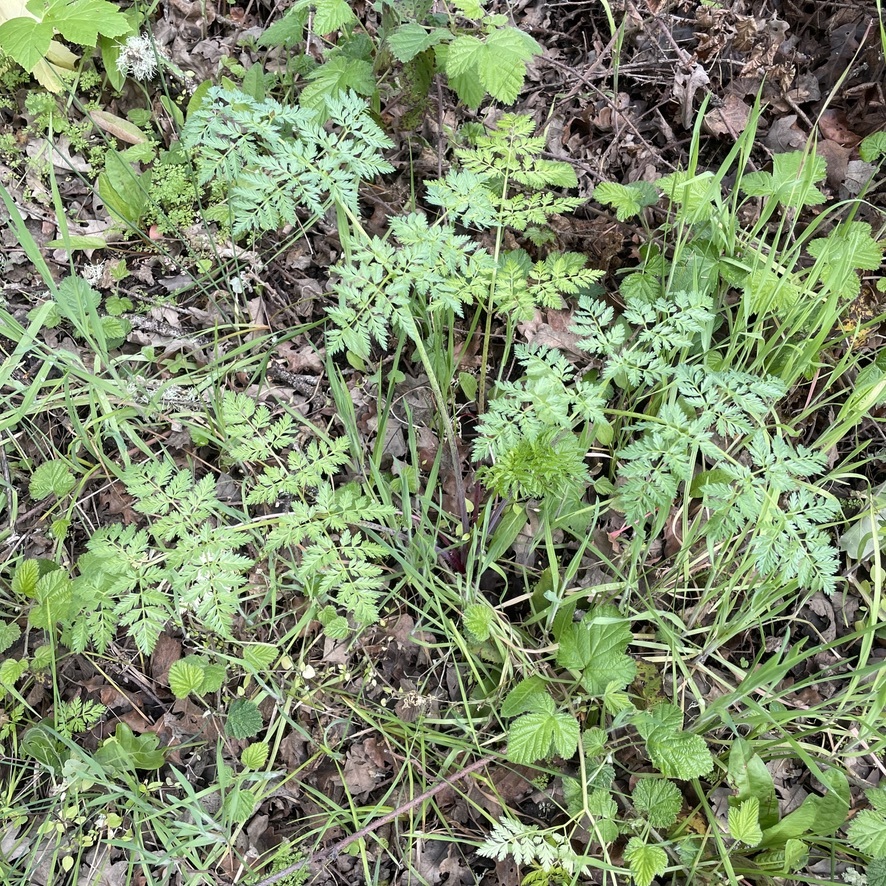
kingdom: Plantae
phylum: Tracheophyta
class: Magnoliopsida
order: Apiales
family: Apiaceae
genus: Conium
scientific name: Conium maculatum
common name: Hemlock
